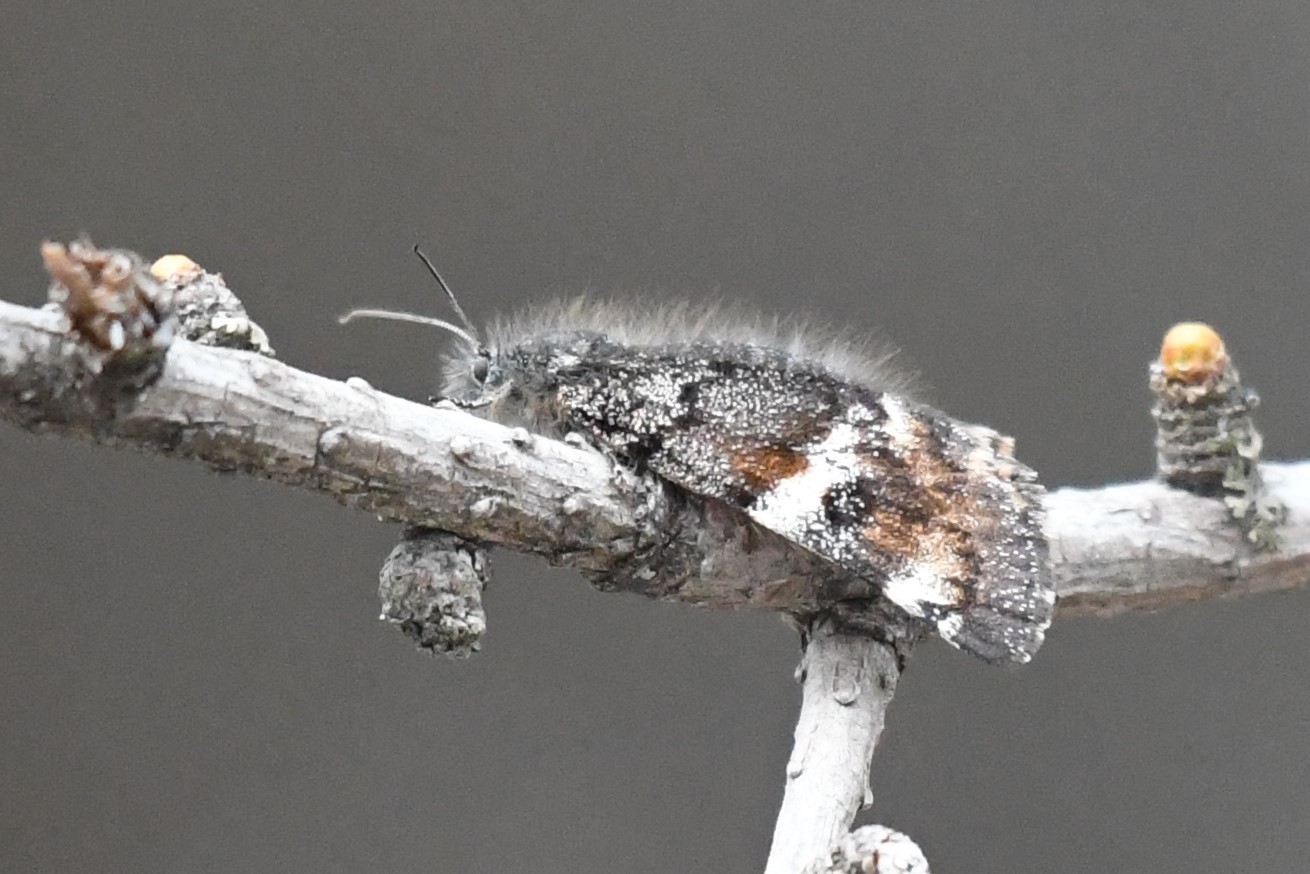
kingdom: Animalia
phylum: Arthropoda
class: Insecta
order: Lepidoptera
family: Geometridae
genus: Archiearis
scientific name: Archiearis infans
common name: First born geometer
